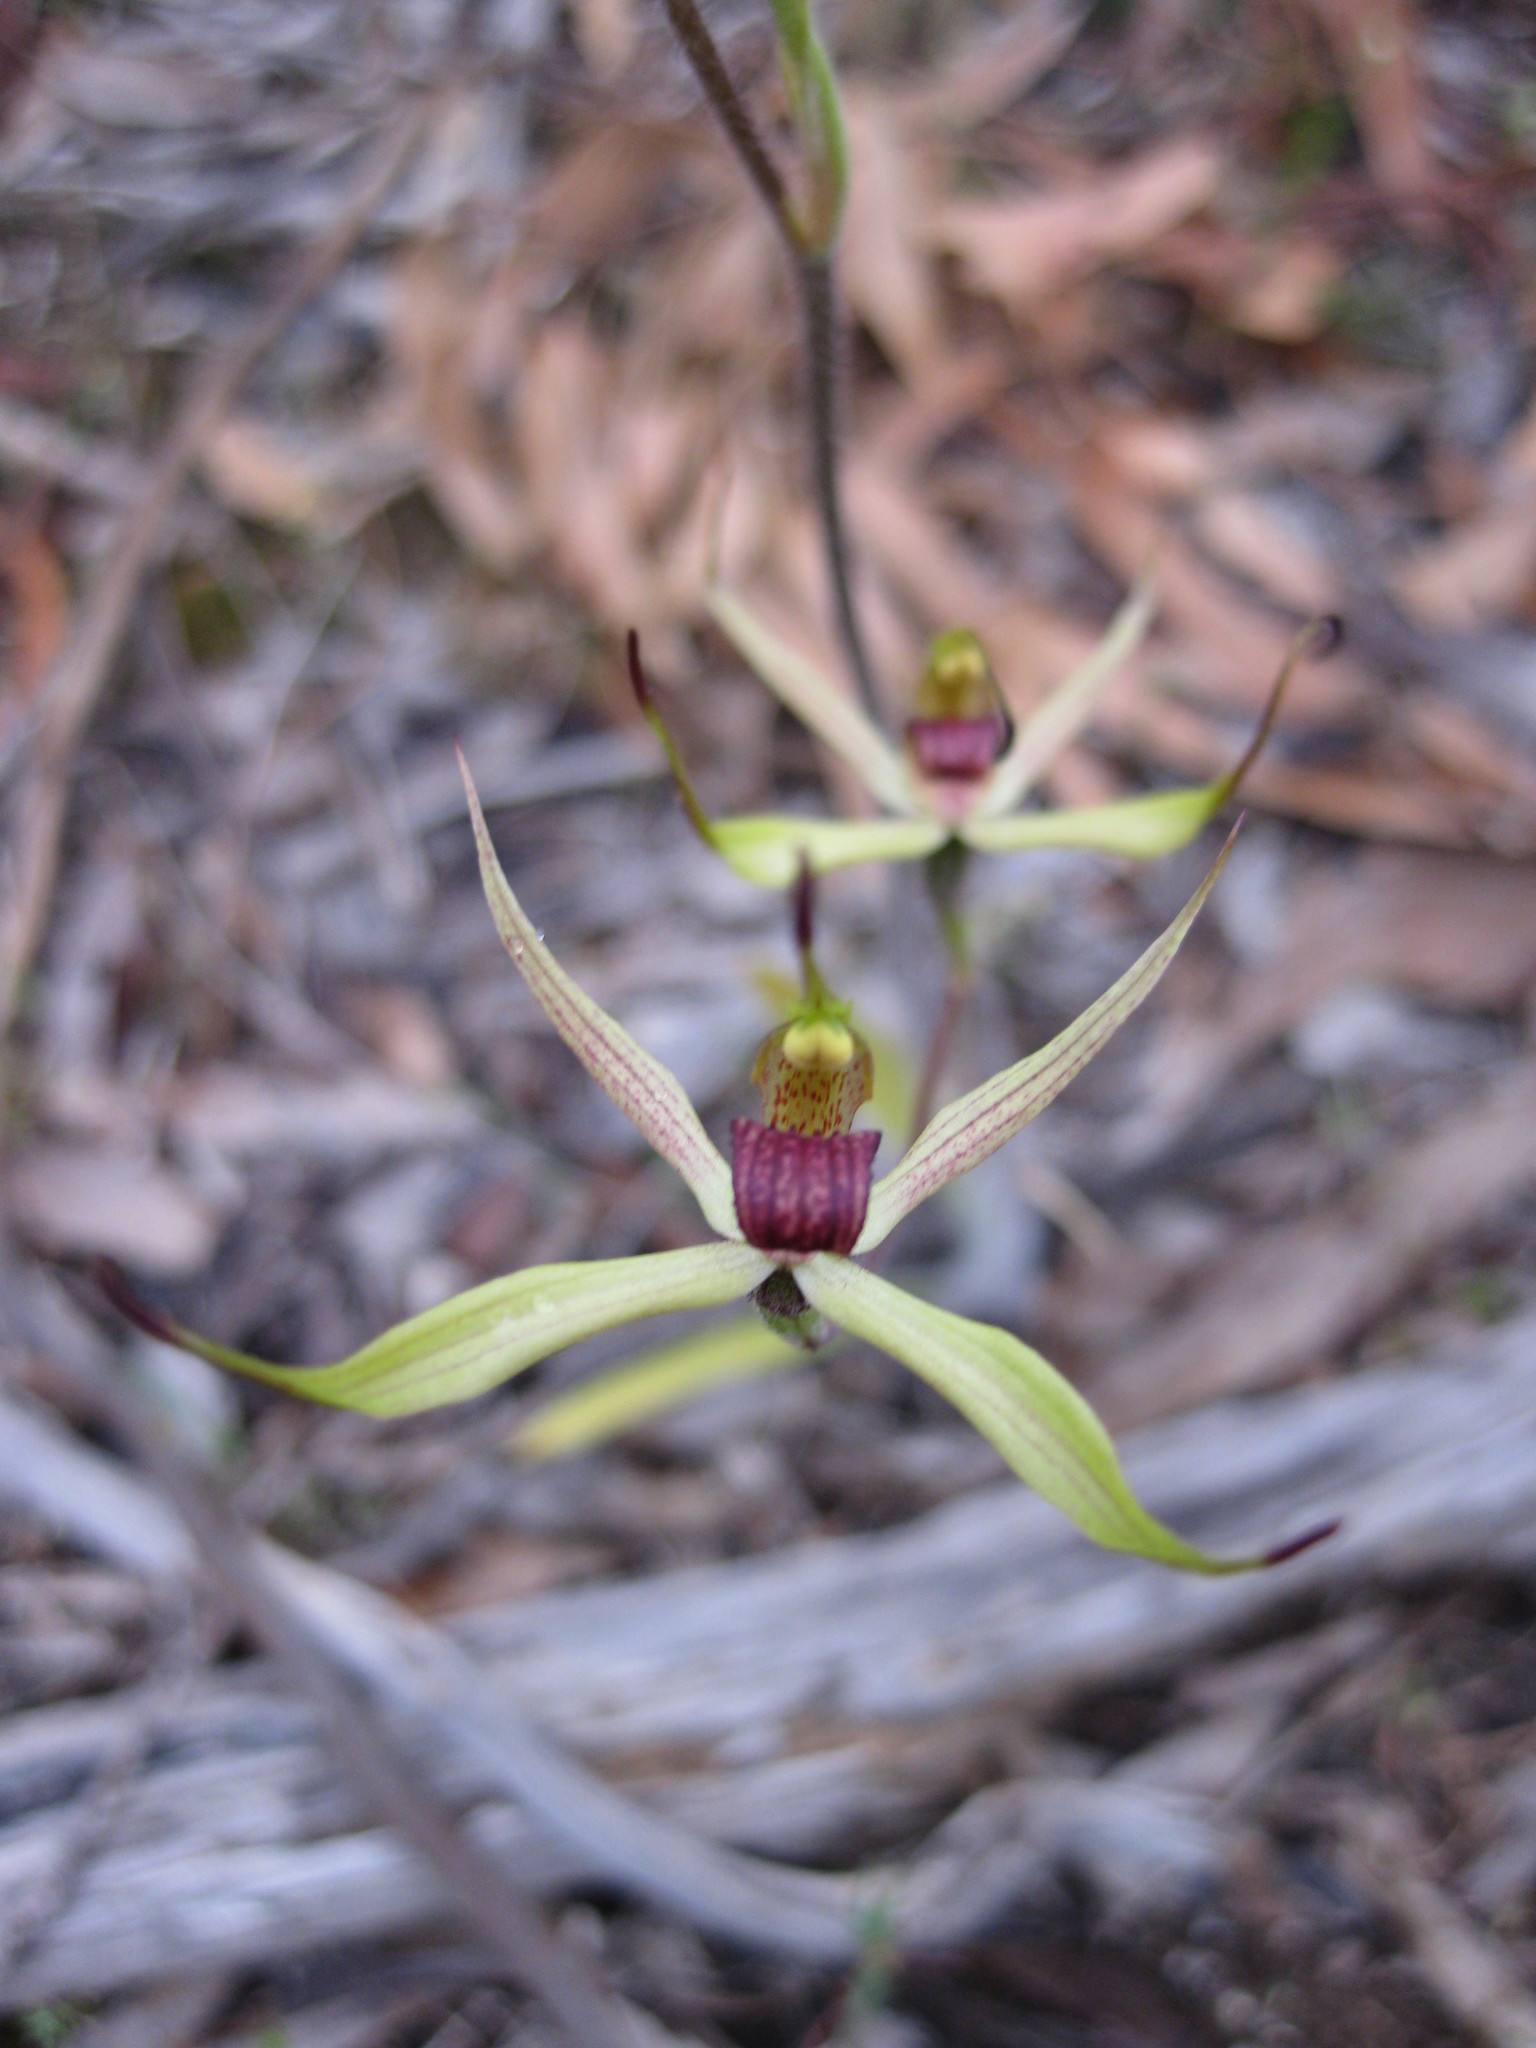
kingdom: Plantae
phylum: Tracheophyta
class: Liliopsida
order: Asparagales
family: Orchidaceae
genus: Caladenia
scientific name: Caladenia leptochila
